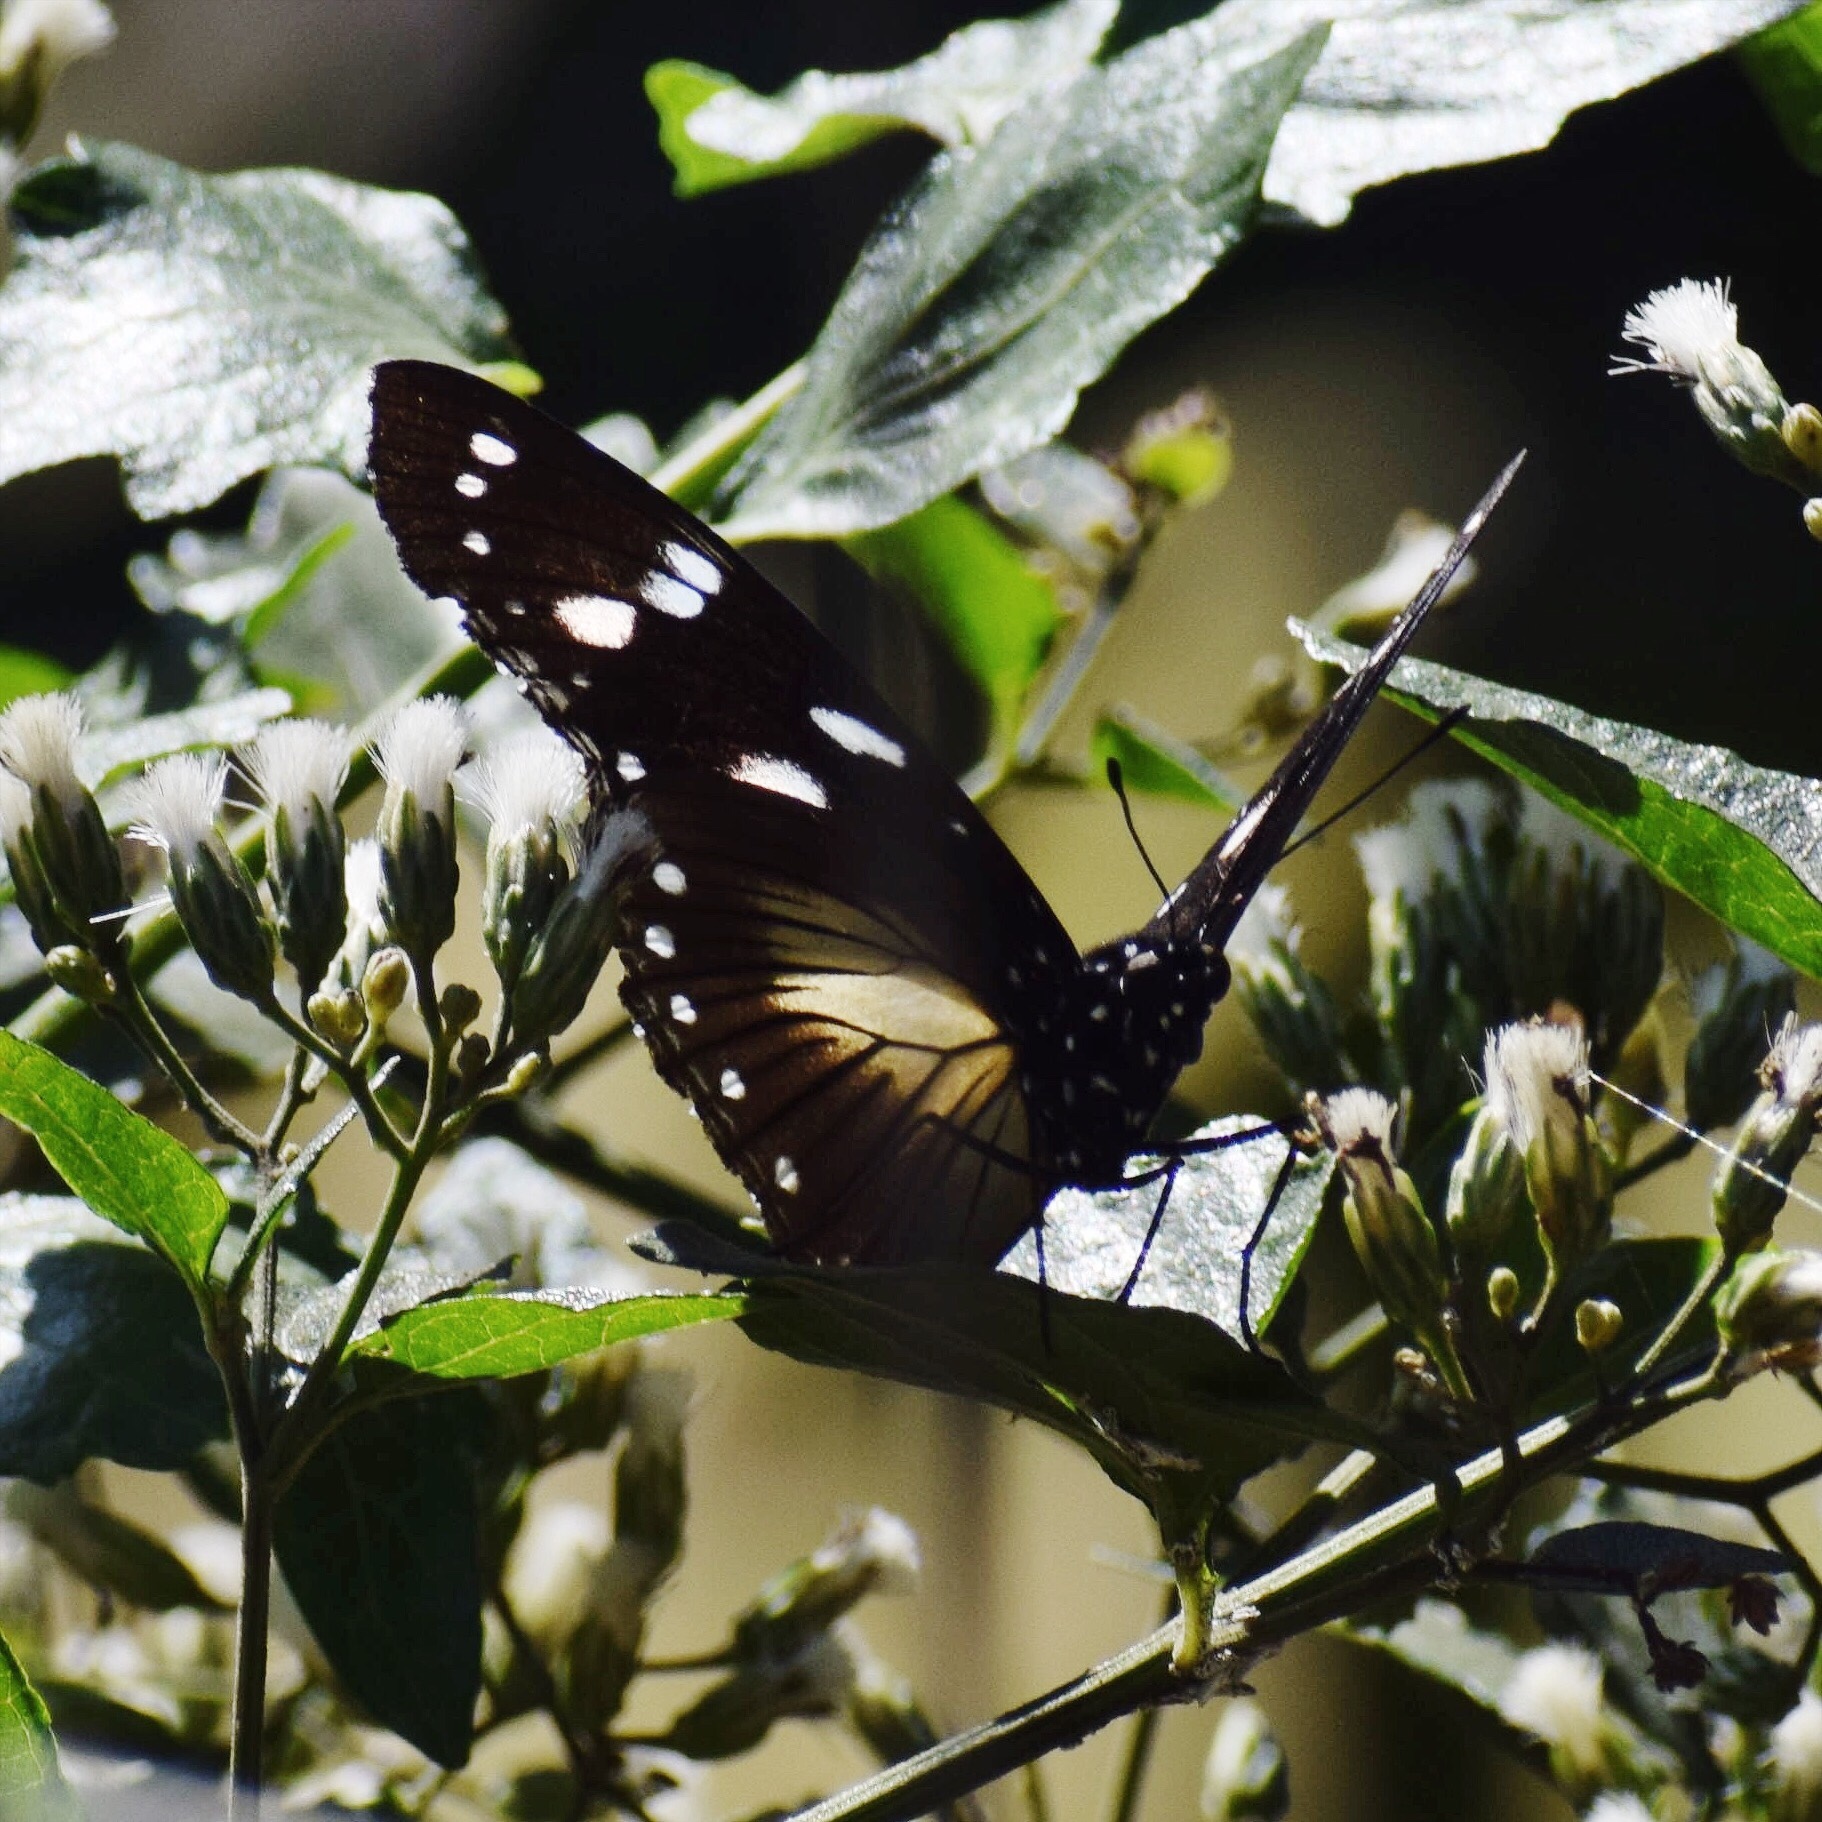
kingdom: Animalia
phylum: Arthropoda
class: Insecta
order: Lepidoptera
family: Nymphalidae
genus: Hypolimnas
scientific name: Hypolimnas dubius
